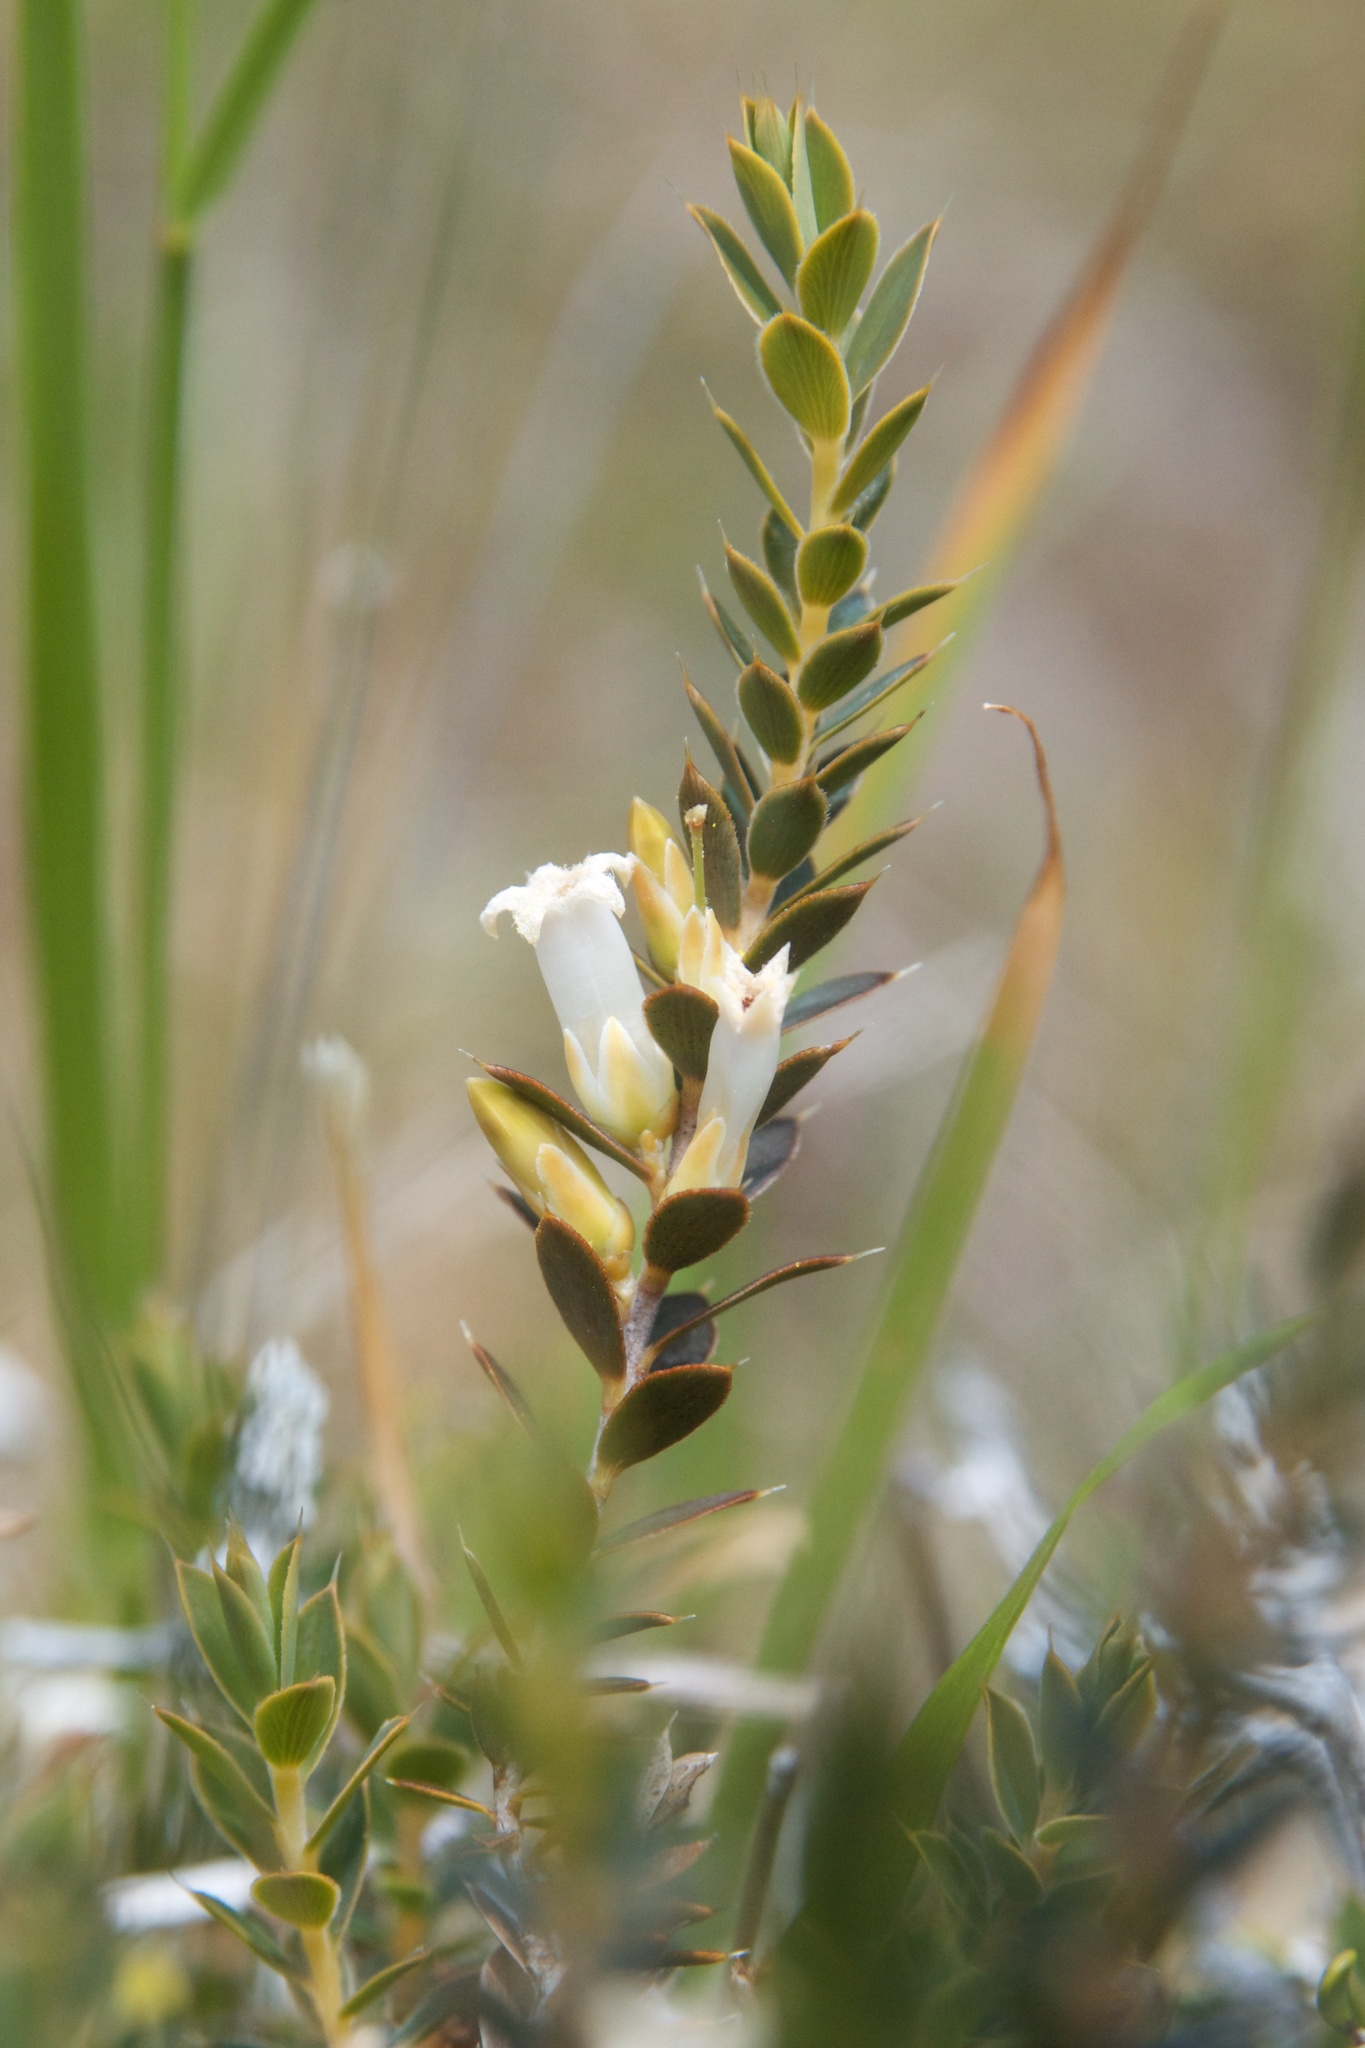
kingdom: Plantae
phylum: Tracheophyta
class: Magnoliopsida
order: Ericales
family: Ericaceae
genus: Styphelia
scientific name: Styphelia nesophila
